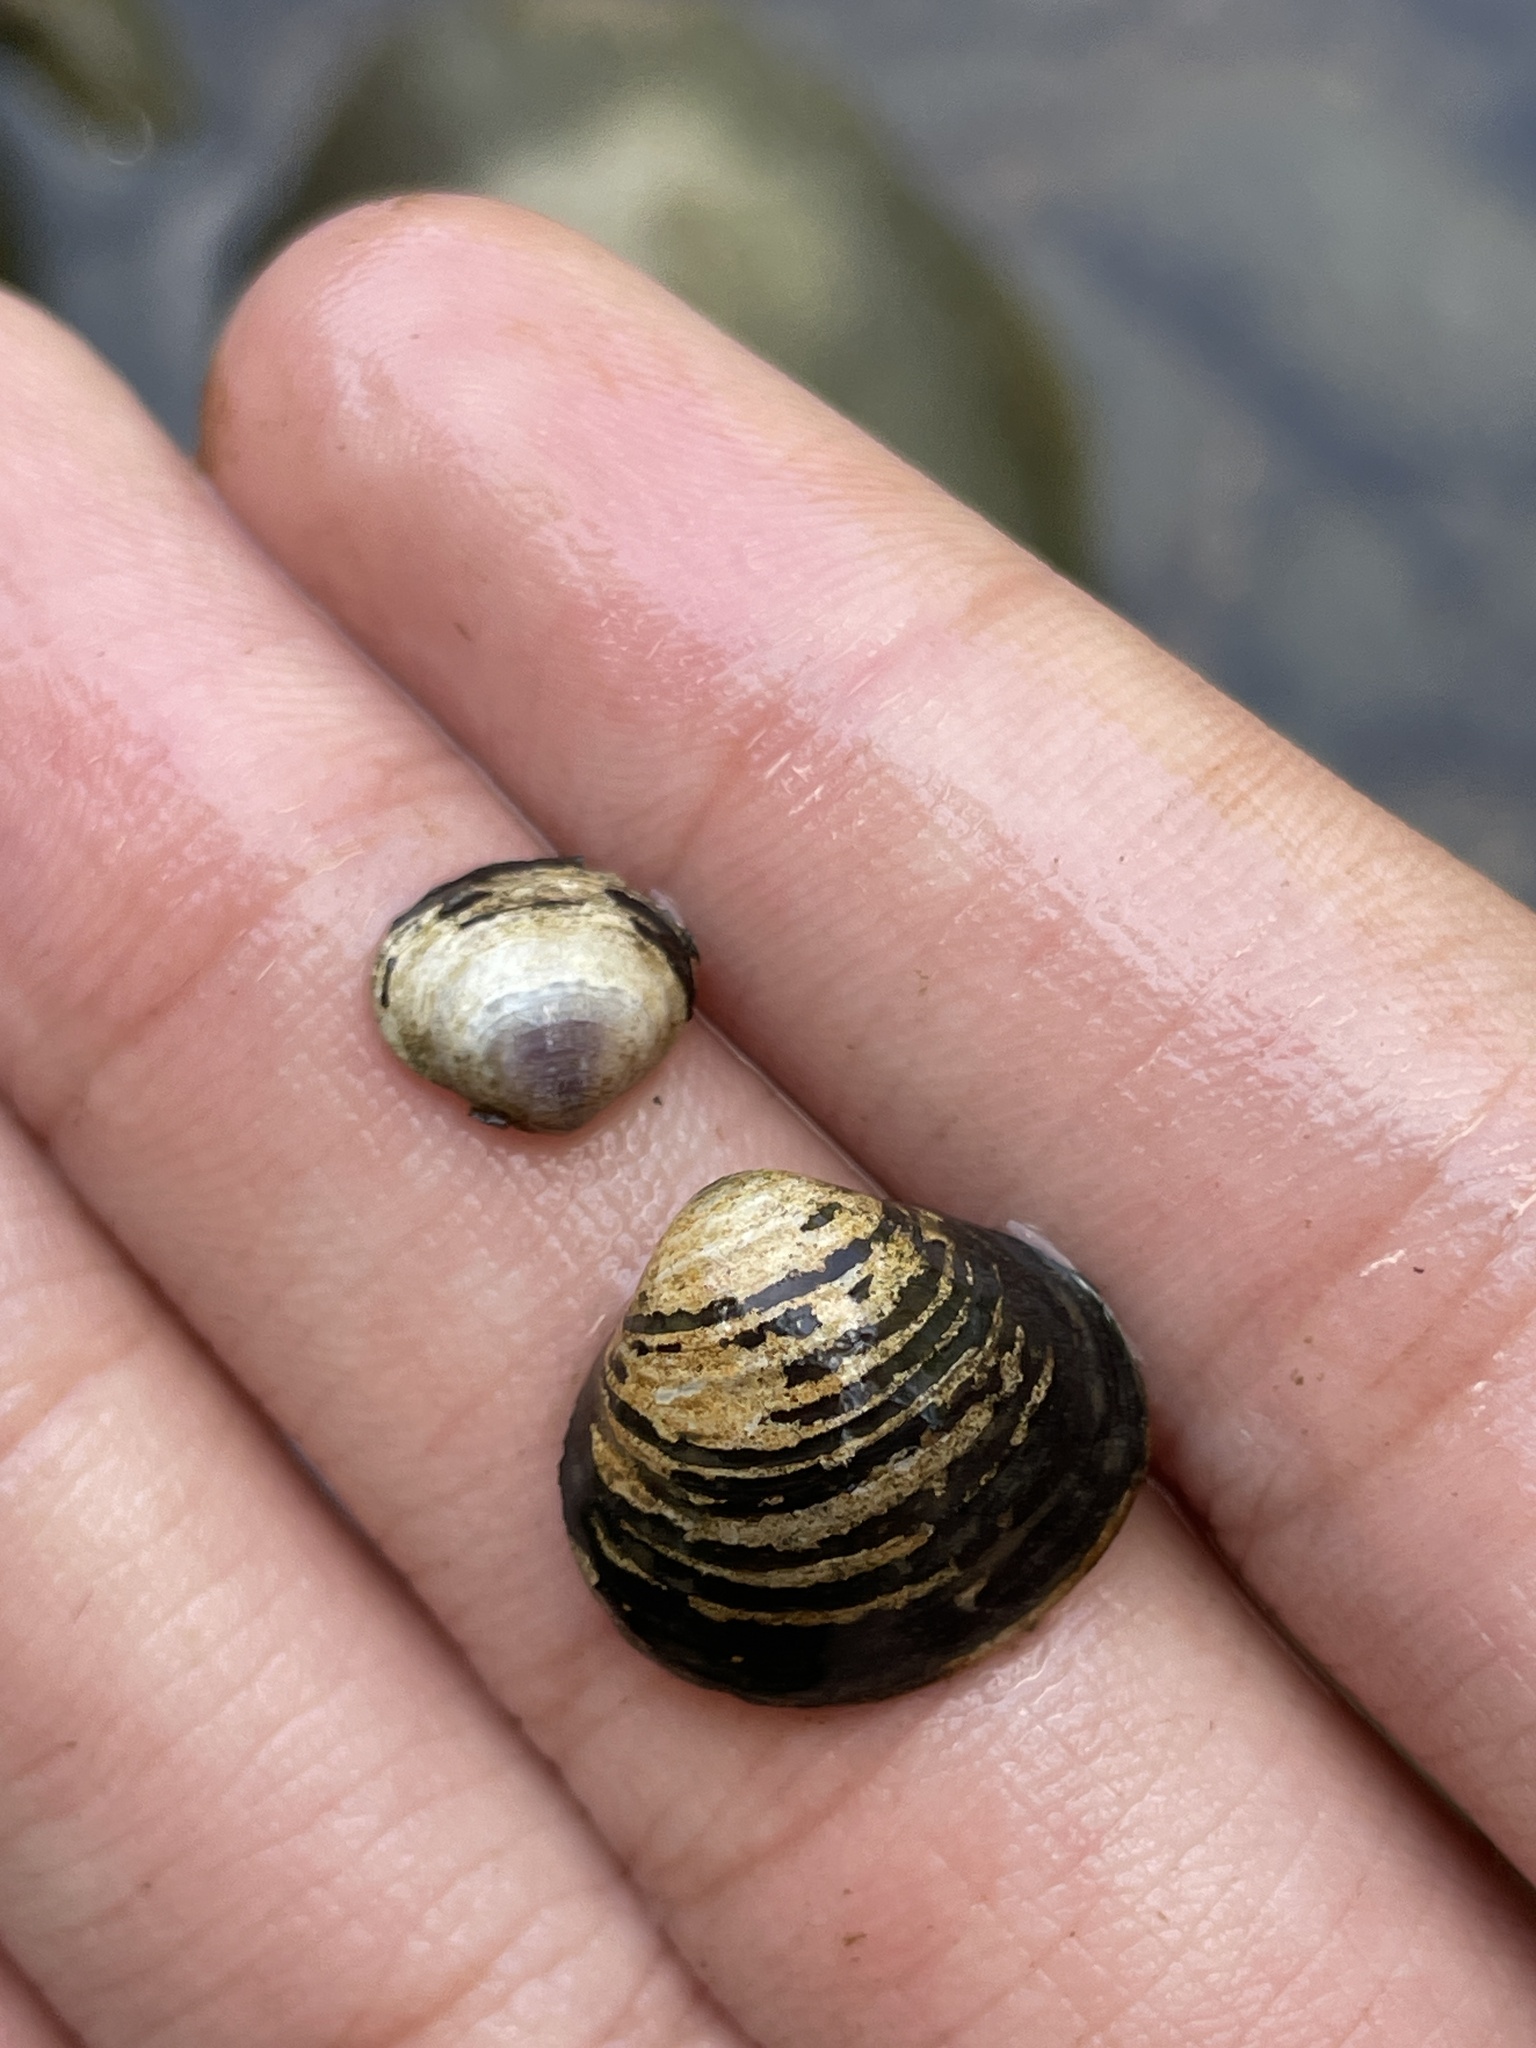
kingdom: Animalia
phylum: Mollusca
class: Bivalvia
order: Venerida
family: Cyrenidae
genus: Corbicula
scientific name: Corbicula fluminea
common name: Asian clam
